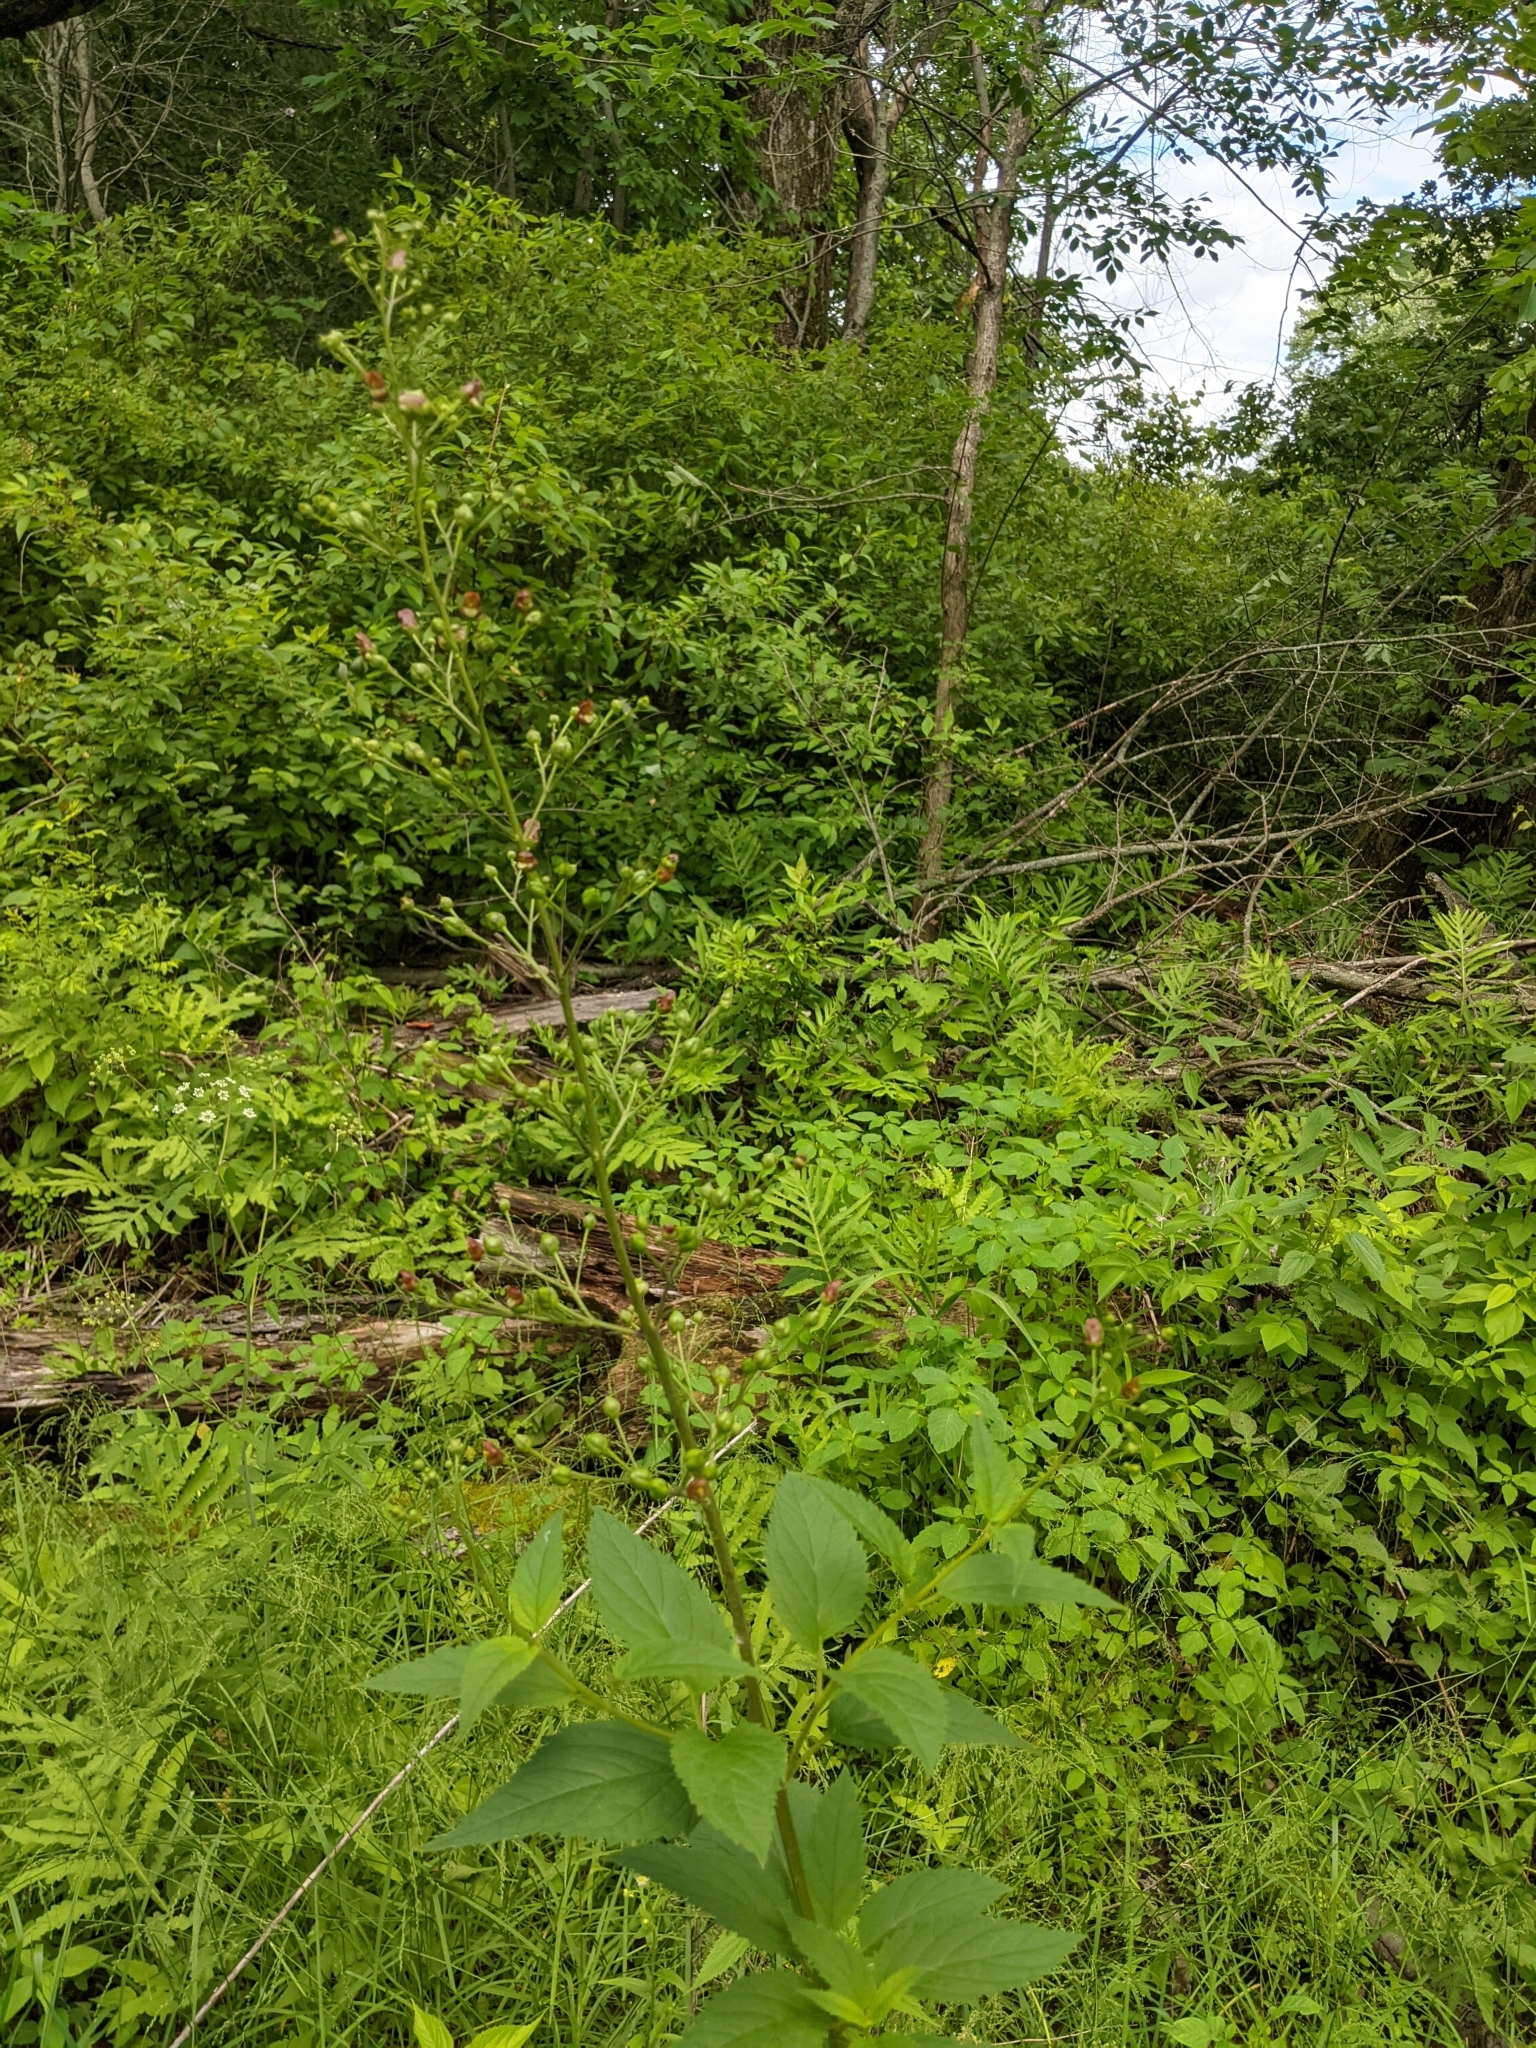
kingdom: Plantae
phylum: Tracheophyta
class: Magnoliopsida
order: Lamiales
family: Scrophulariaceae
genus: Scrophularia
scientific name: Scrophularia lanceolata
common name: American figwort
